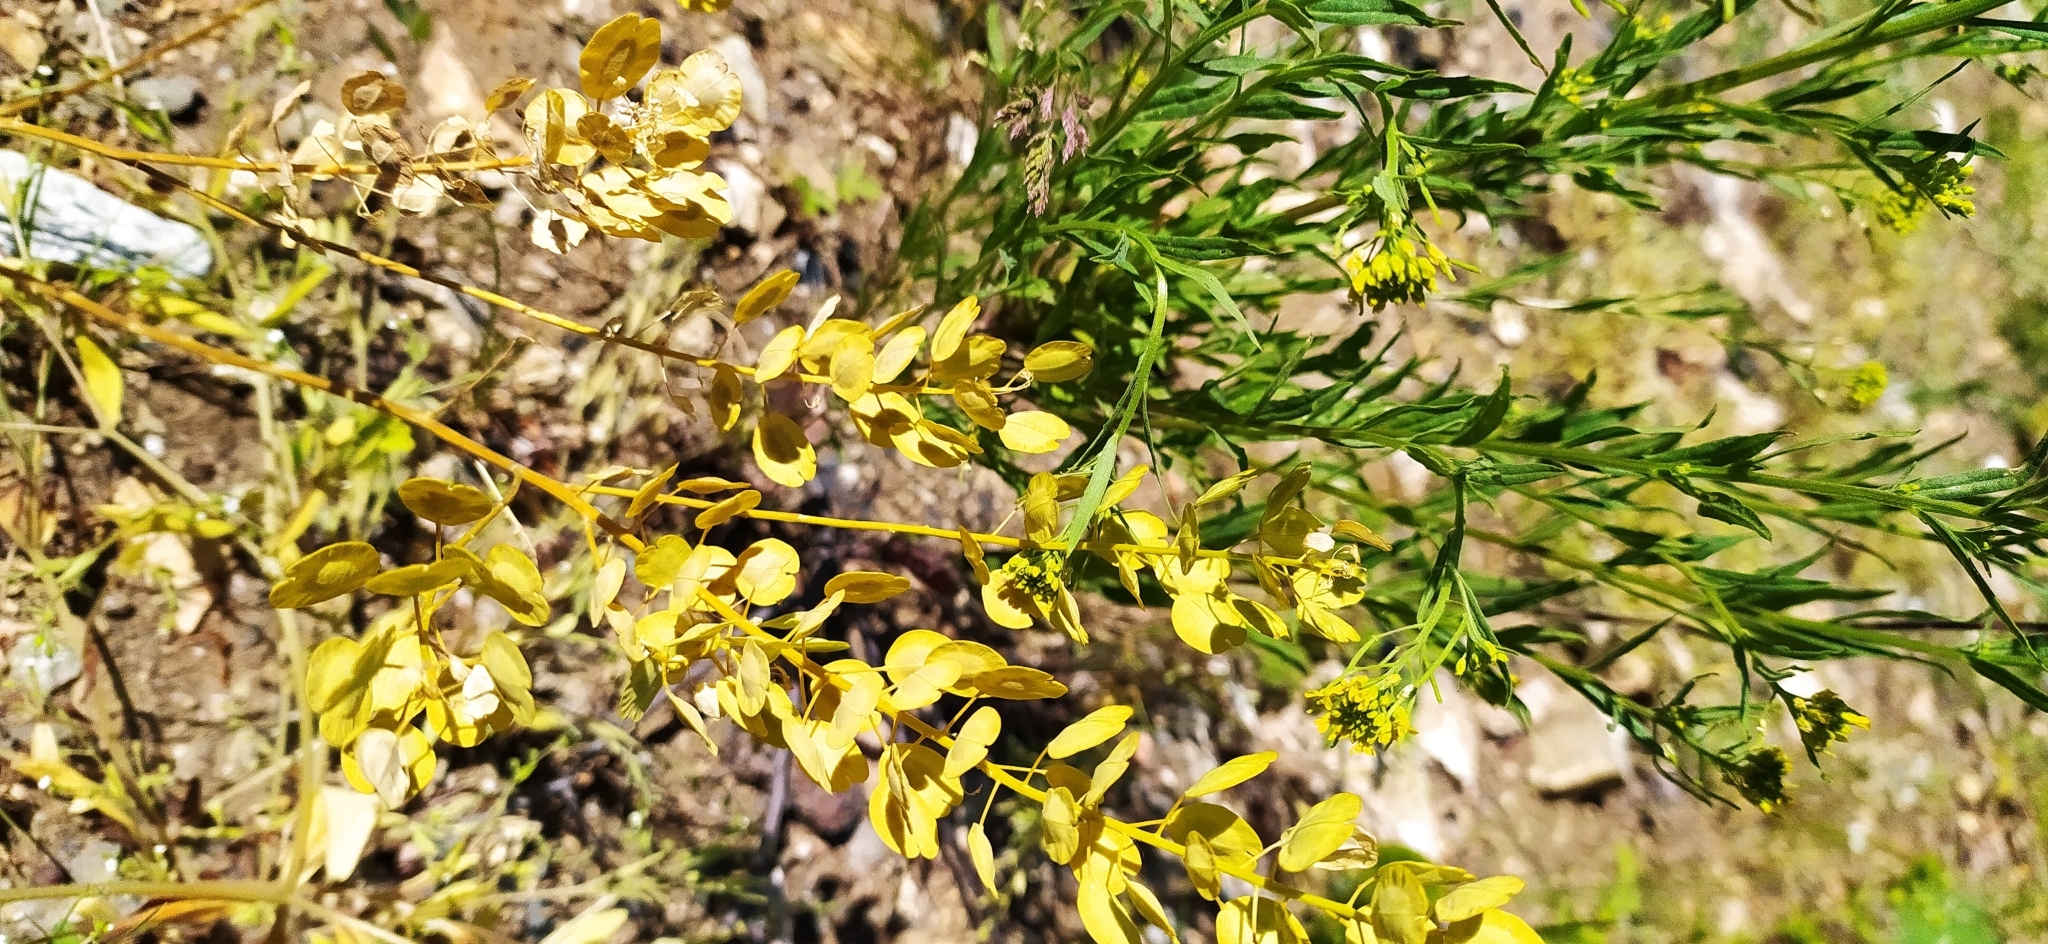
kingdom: Plantae
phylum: Tracheophyta
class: Magnoliopsida
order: Brassicales
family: Brassicaceae
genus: Thlaspi
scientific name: Thlaspi arvense
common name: Field pennycress
